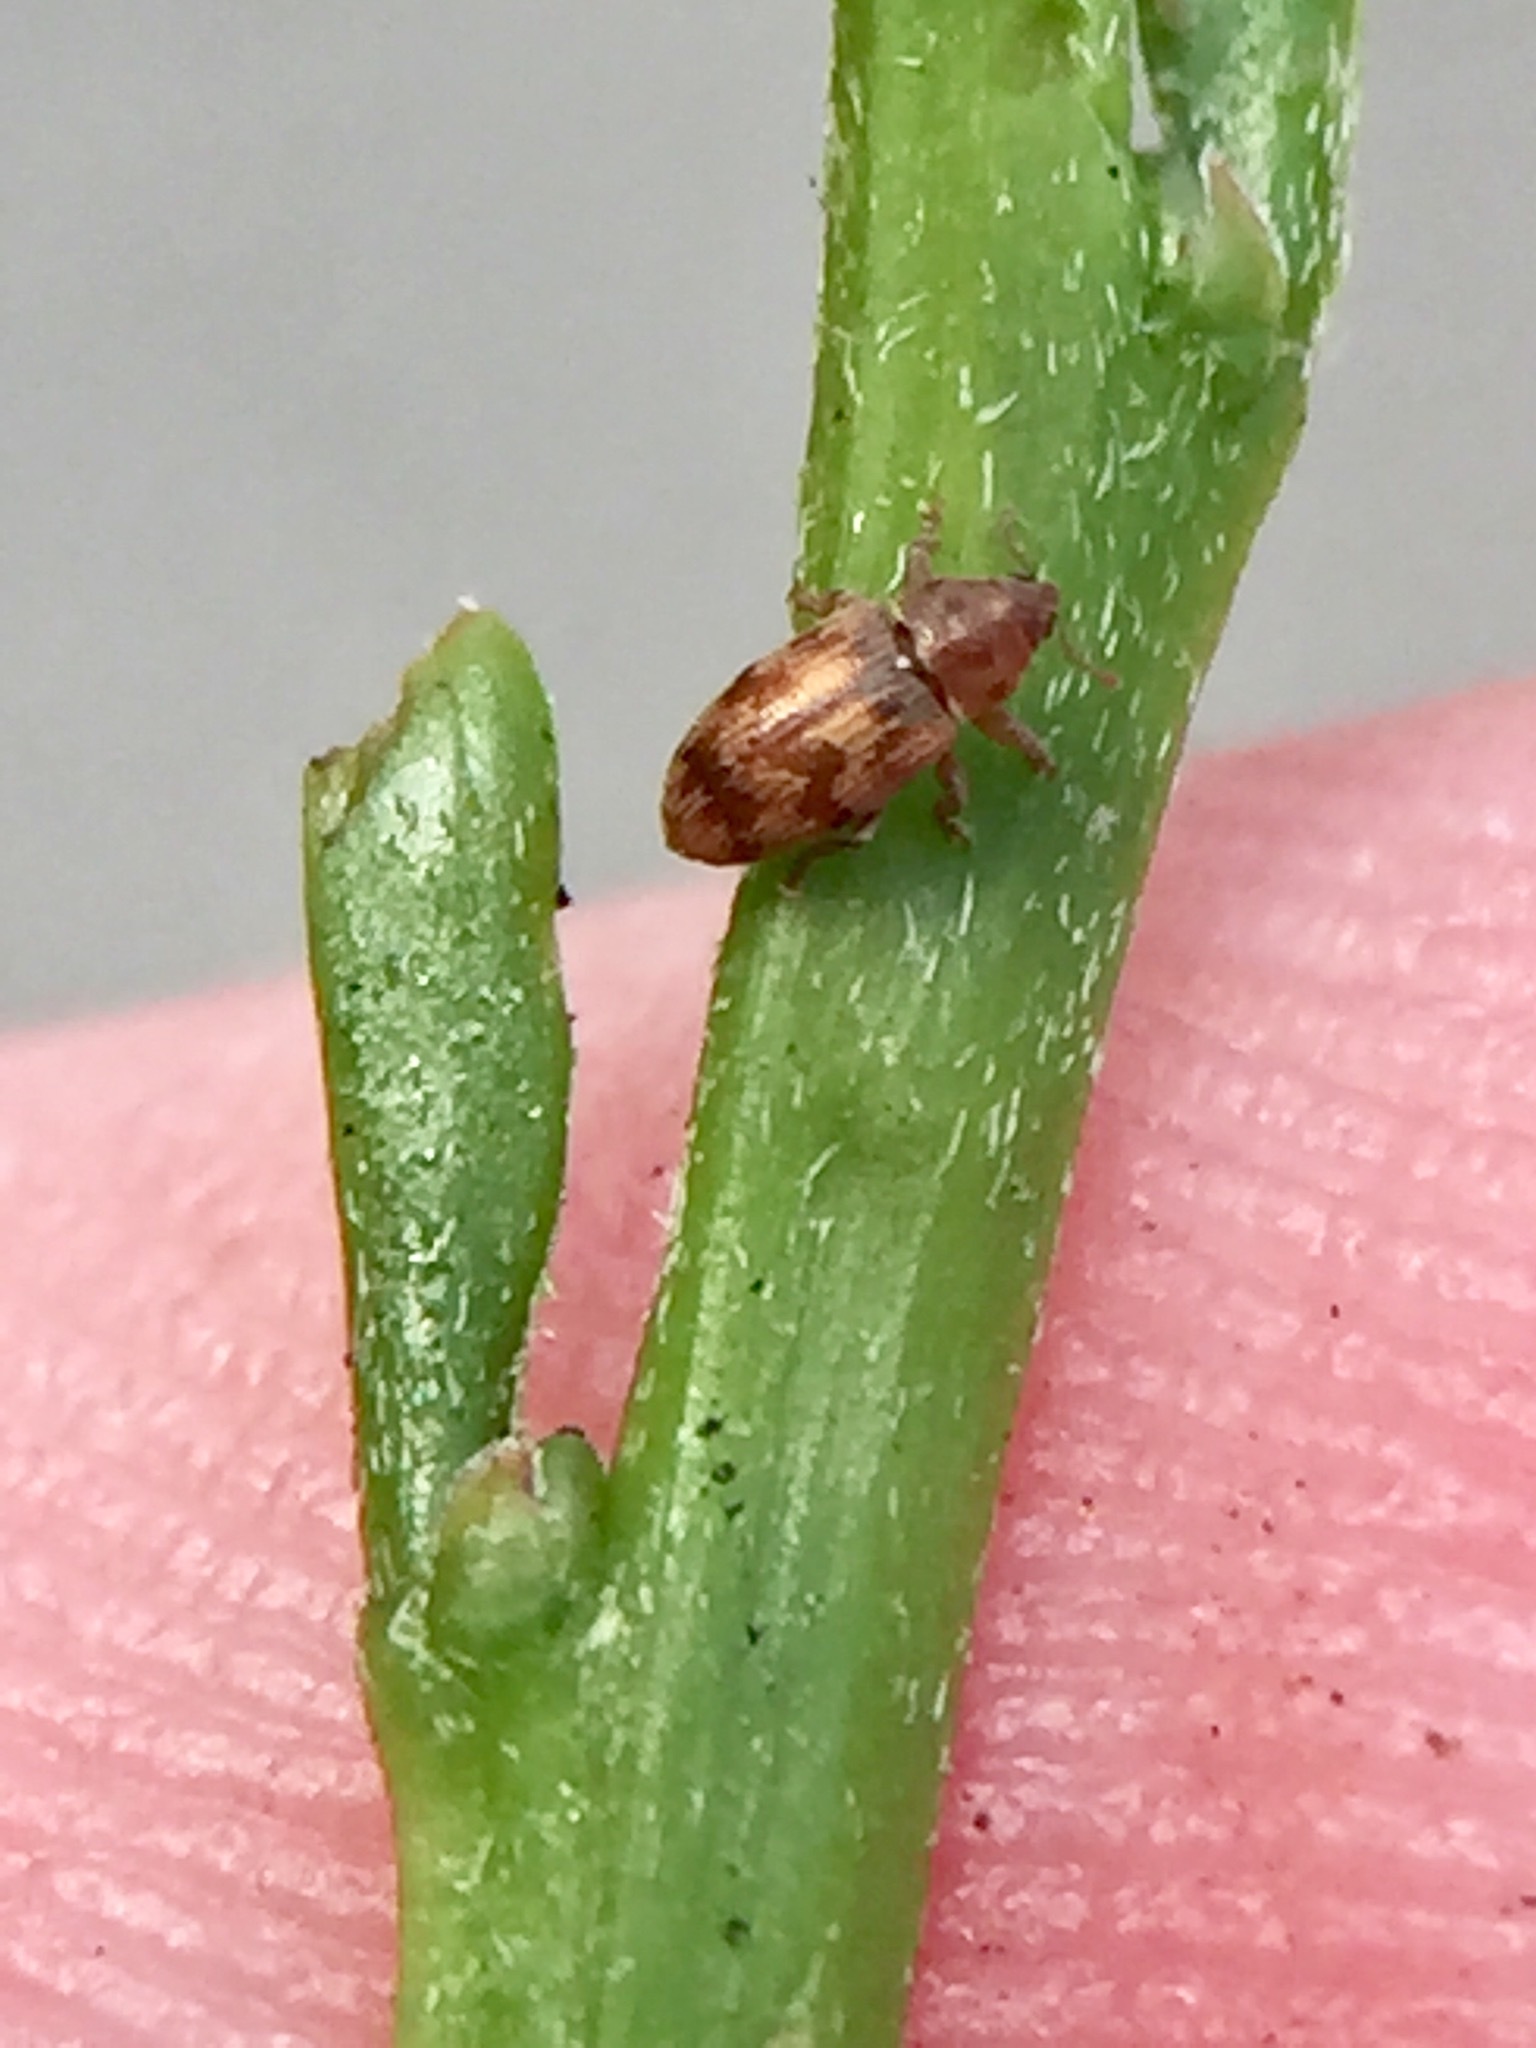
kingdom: Animalia
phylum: Arthropoda
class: Insecta
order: Coleoptera
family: Curculionidae
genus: Epamoebus
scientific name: Epamoebus ziczac
